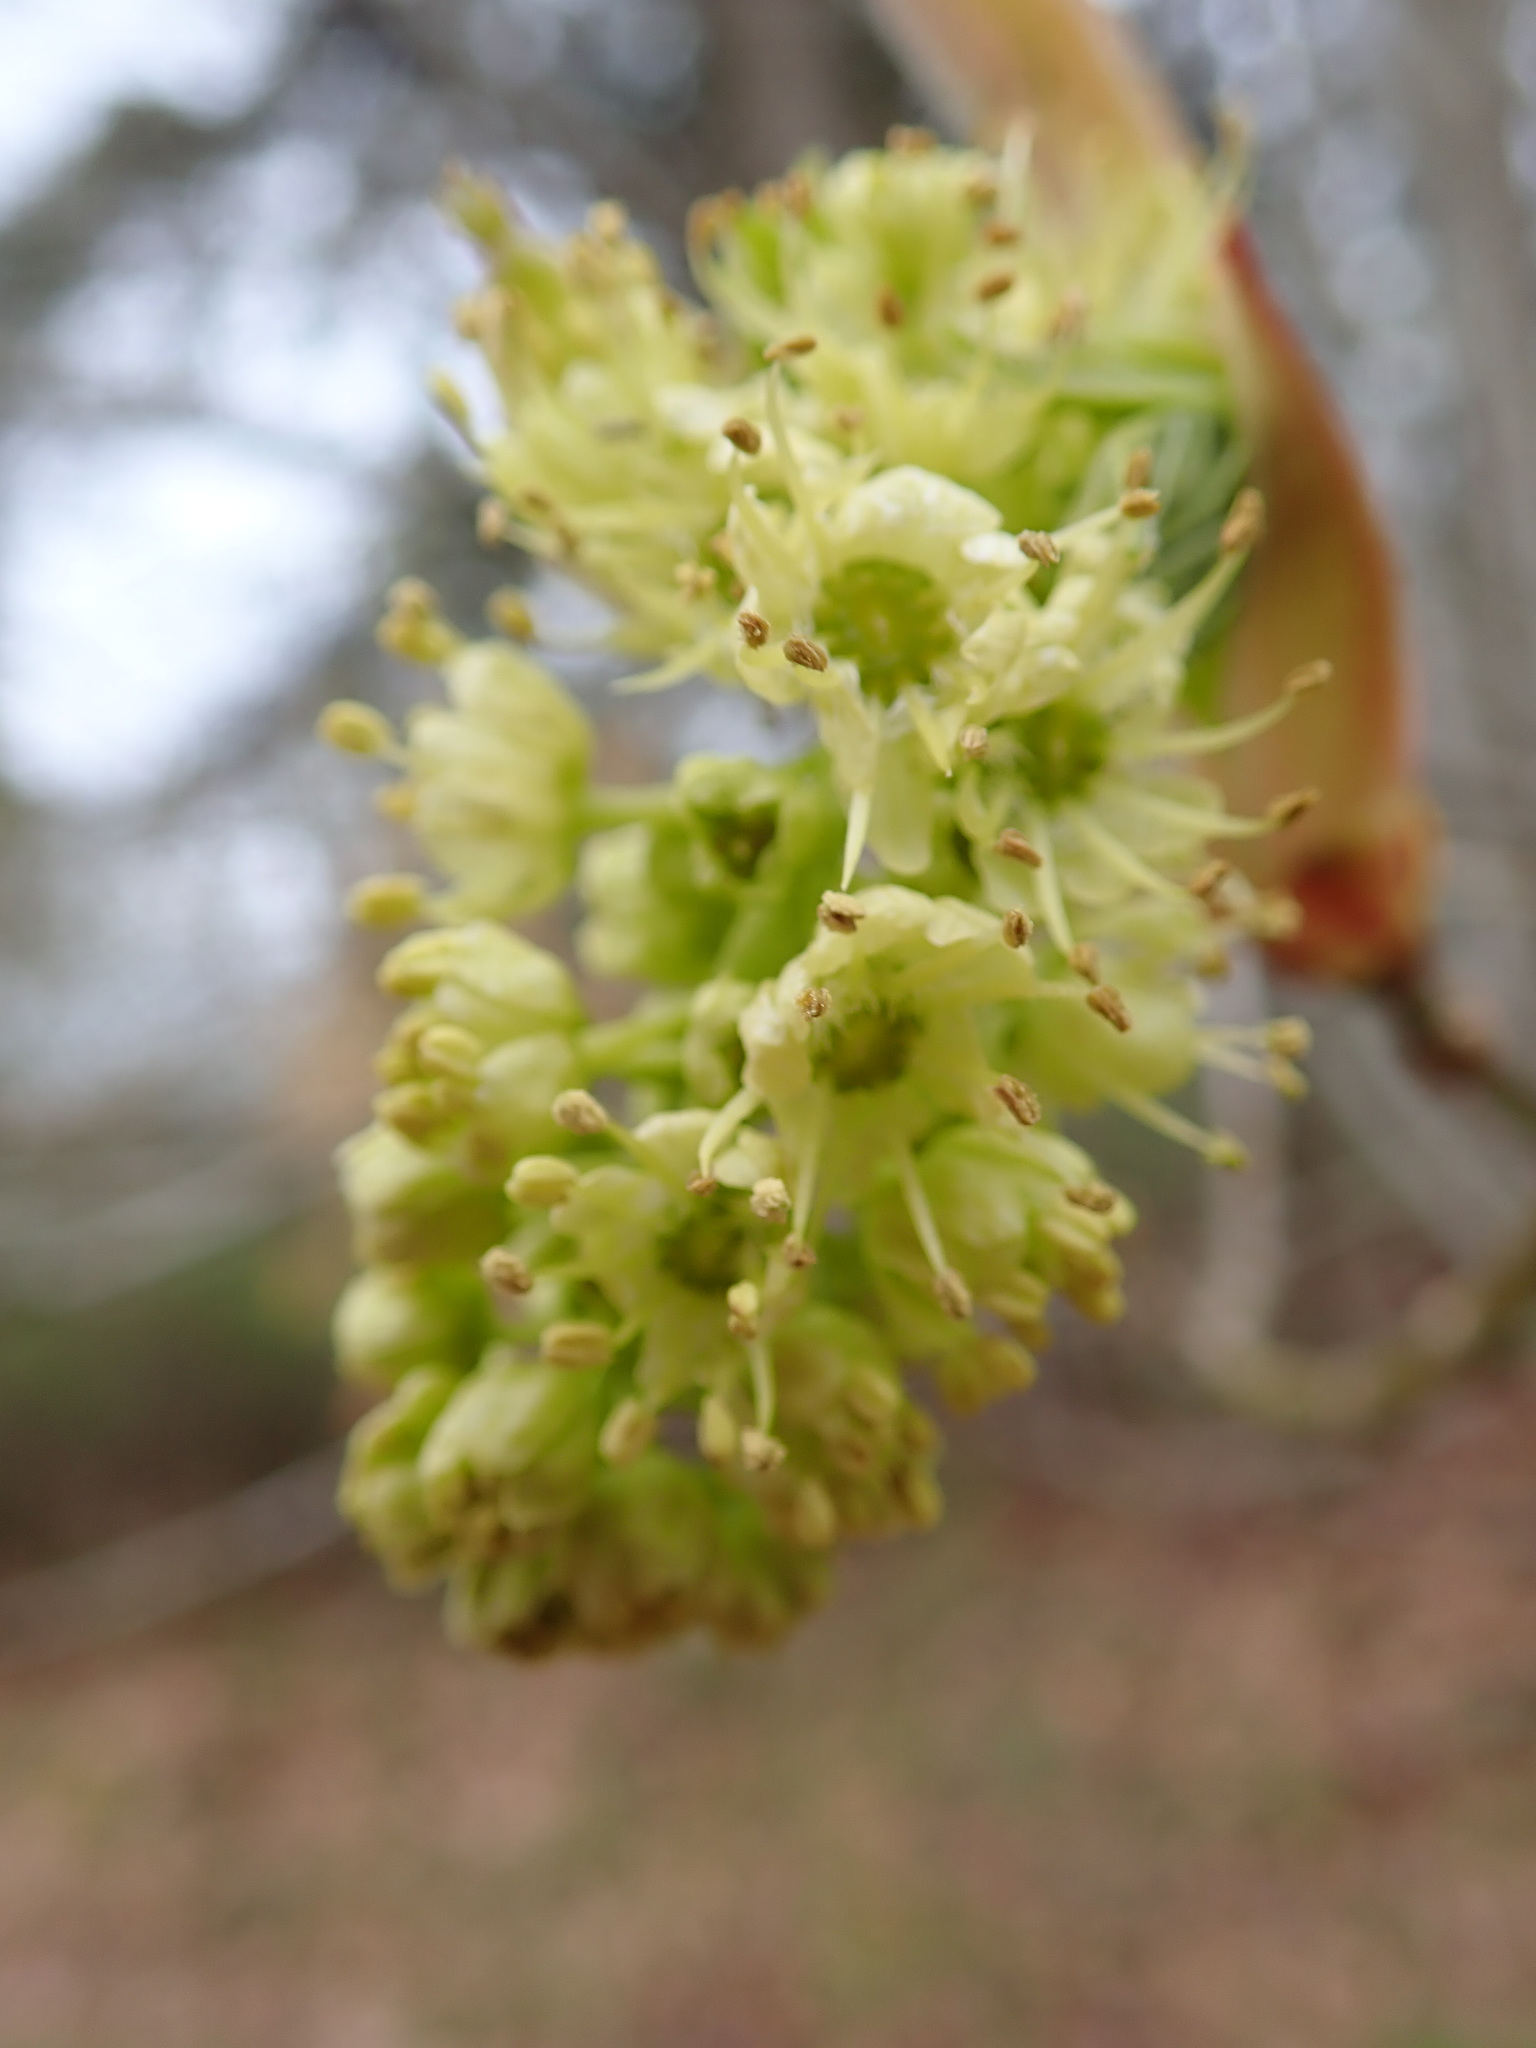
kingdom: Plantae
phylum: Tracheophyta
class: Magnoliopsida
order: Sapindales
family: Sapindaceae
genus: Acer
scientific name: Acer macrophyllum
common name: Oregon maple
